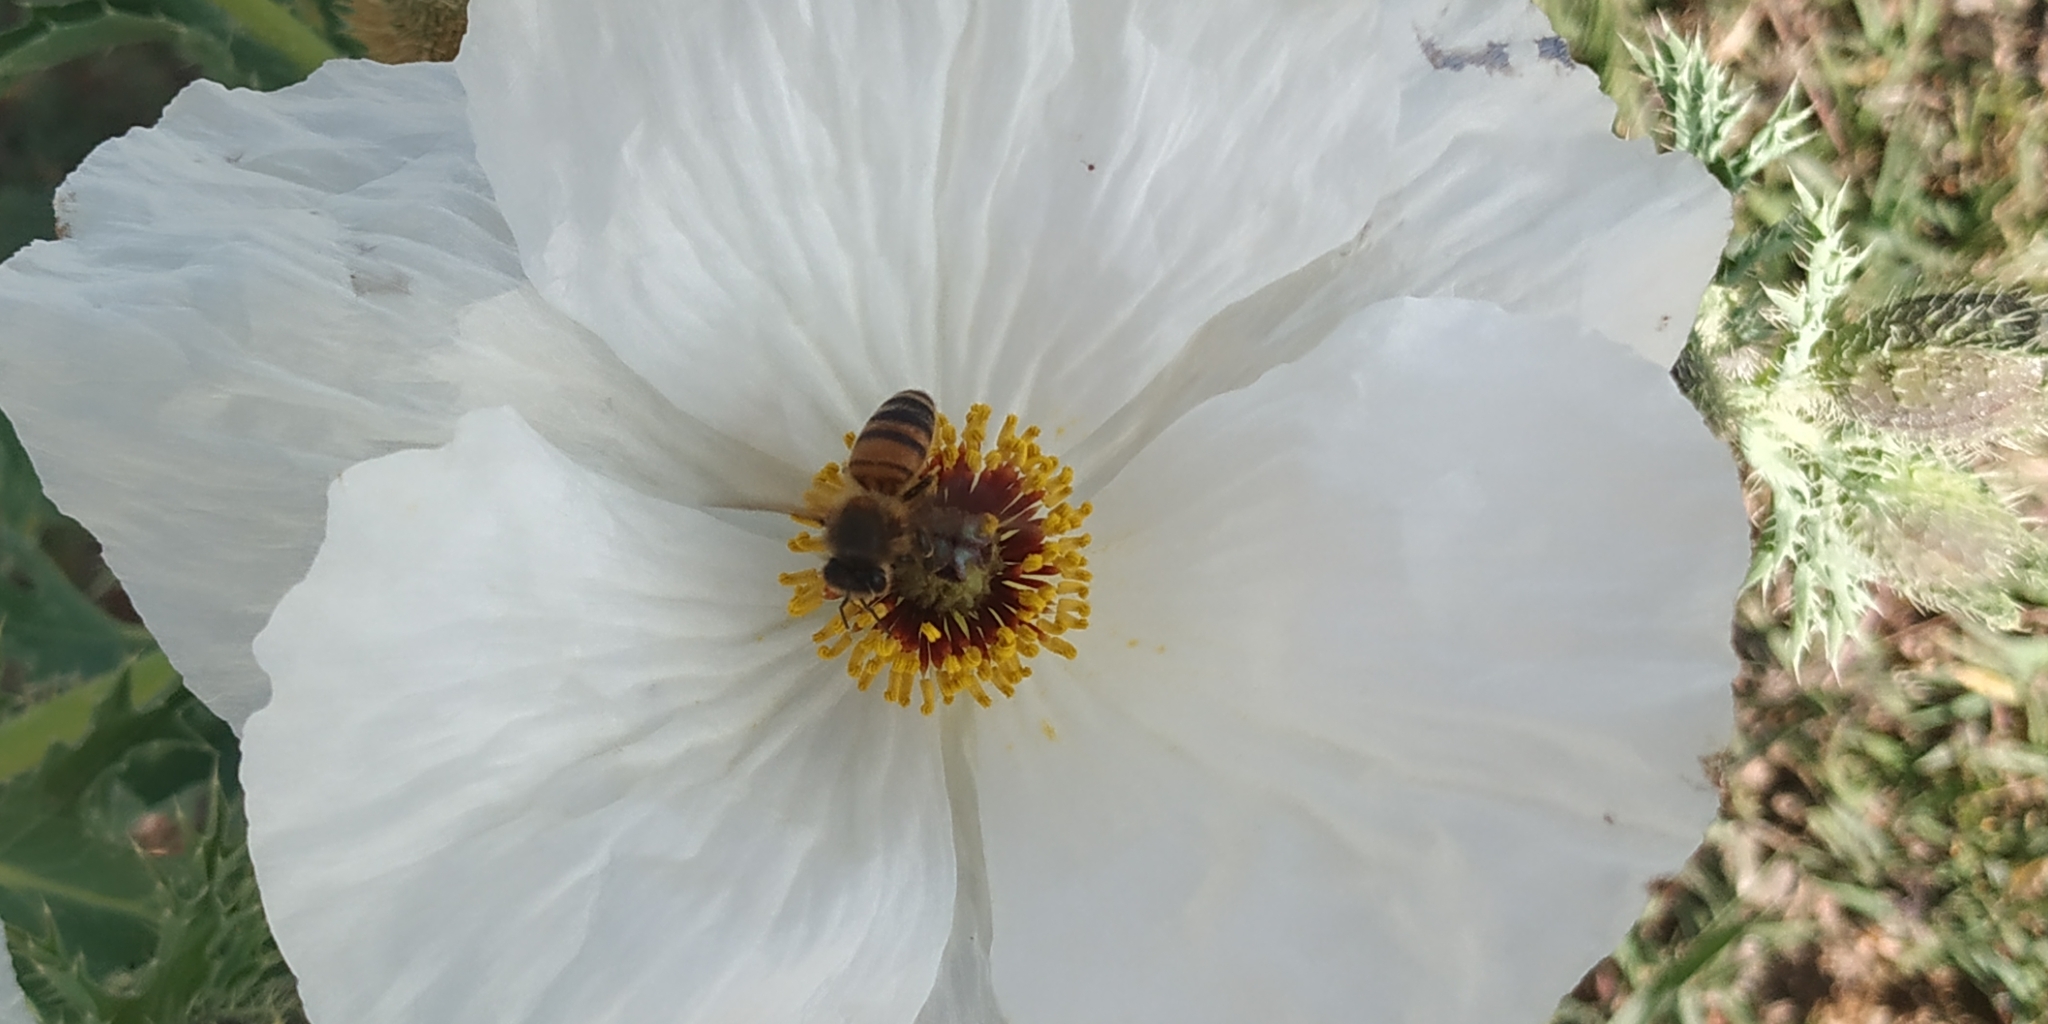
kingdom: Animalia
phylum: Arthropoda
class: Insecta
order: Hymenoptera
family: Apidae
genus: Apis
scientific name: Apis mellifera
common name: Honey bee
